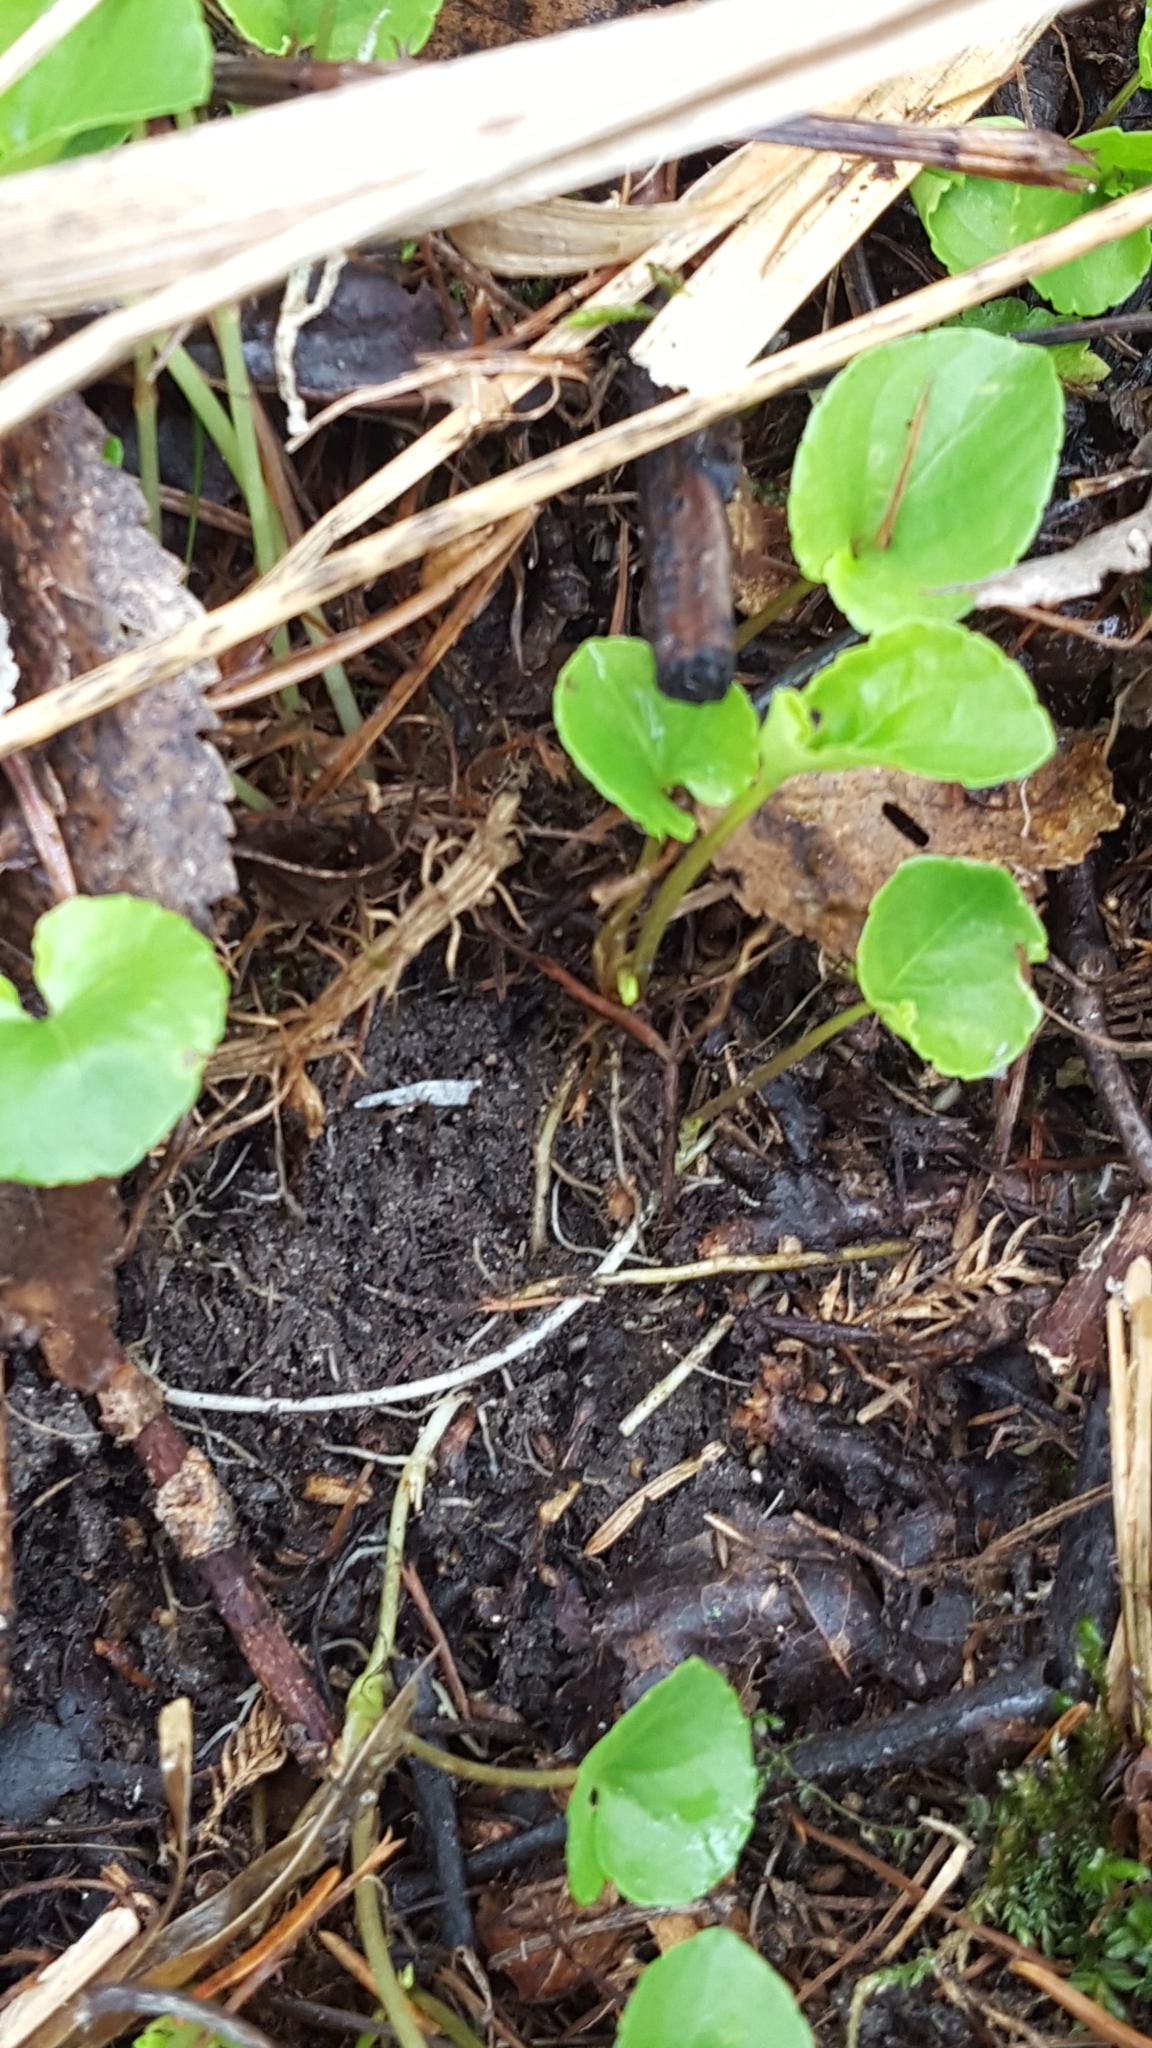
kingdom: Plantae
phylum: Tracheophyta
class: Magnoliopsida
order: Malpighiales
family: Violaceae
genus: Viola
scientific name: Viola minuscula
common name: Northern white violet
